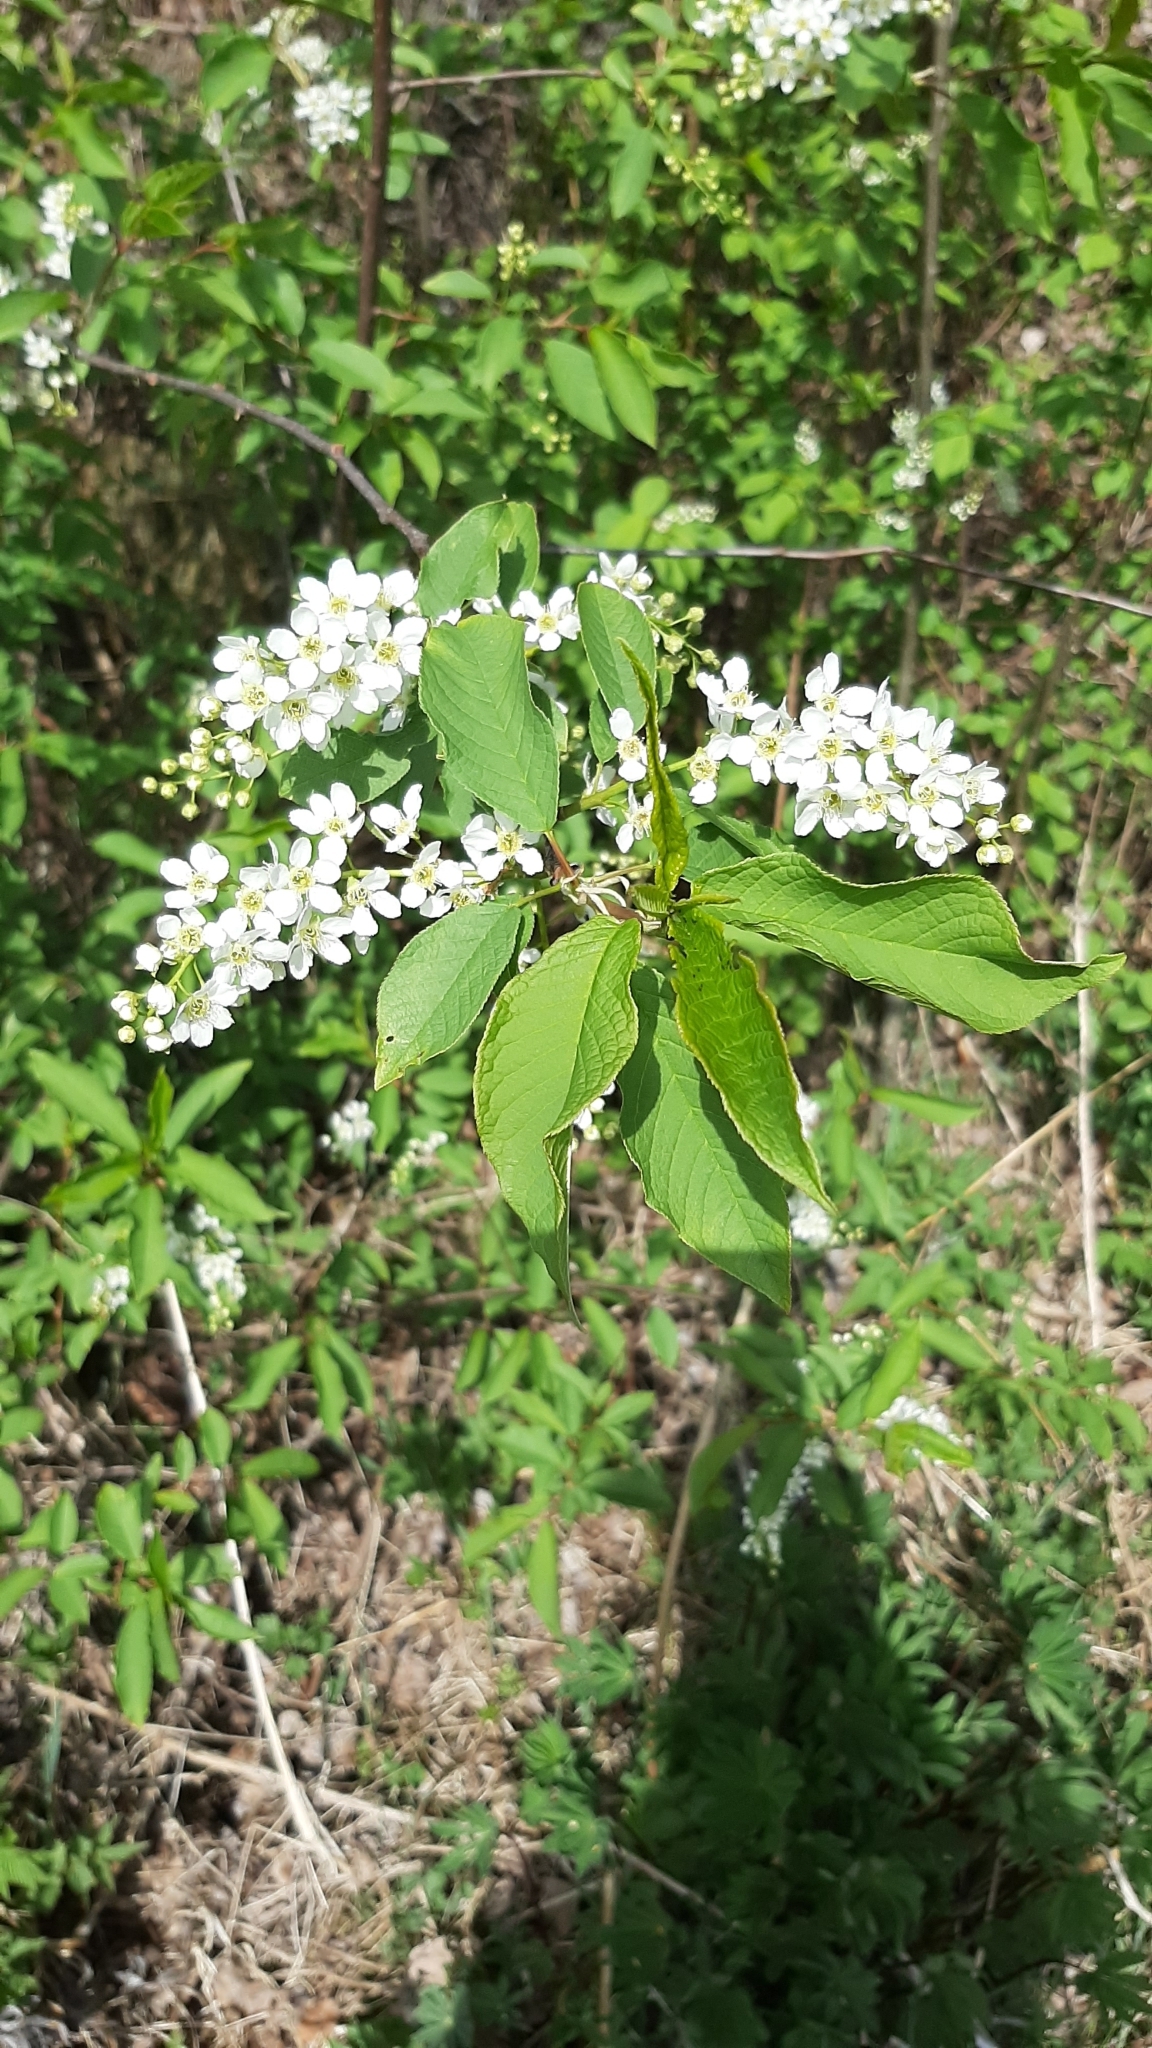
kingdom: Plantae
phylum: Tracheophyta
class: Magnoliopsida
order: Rosales
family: Rosaceae
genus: Prunus
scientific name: Prunus padus
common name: Bird cherry
